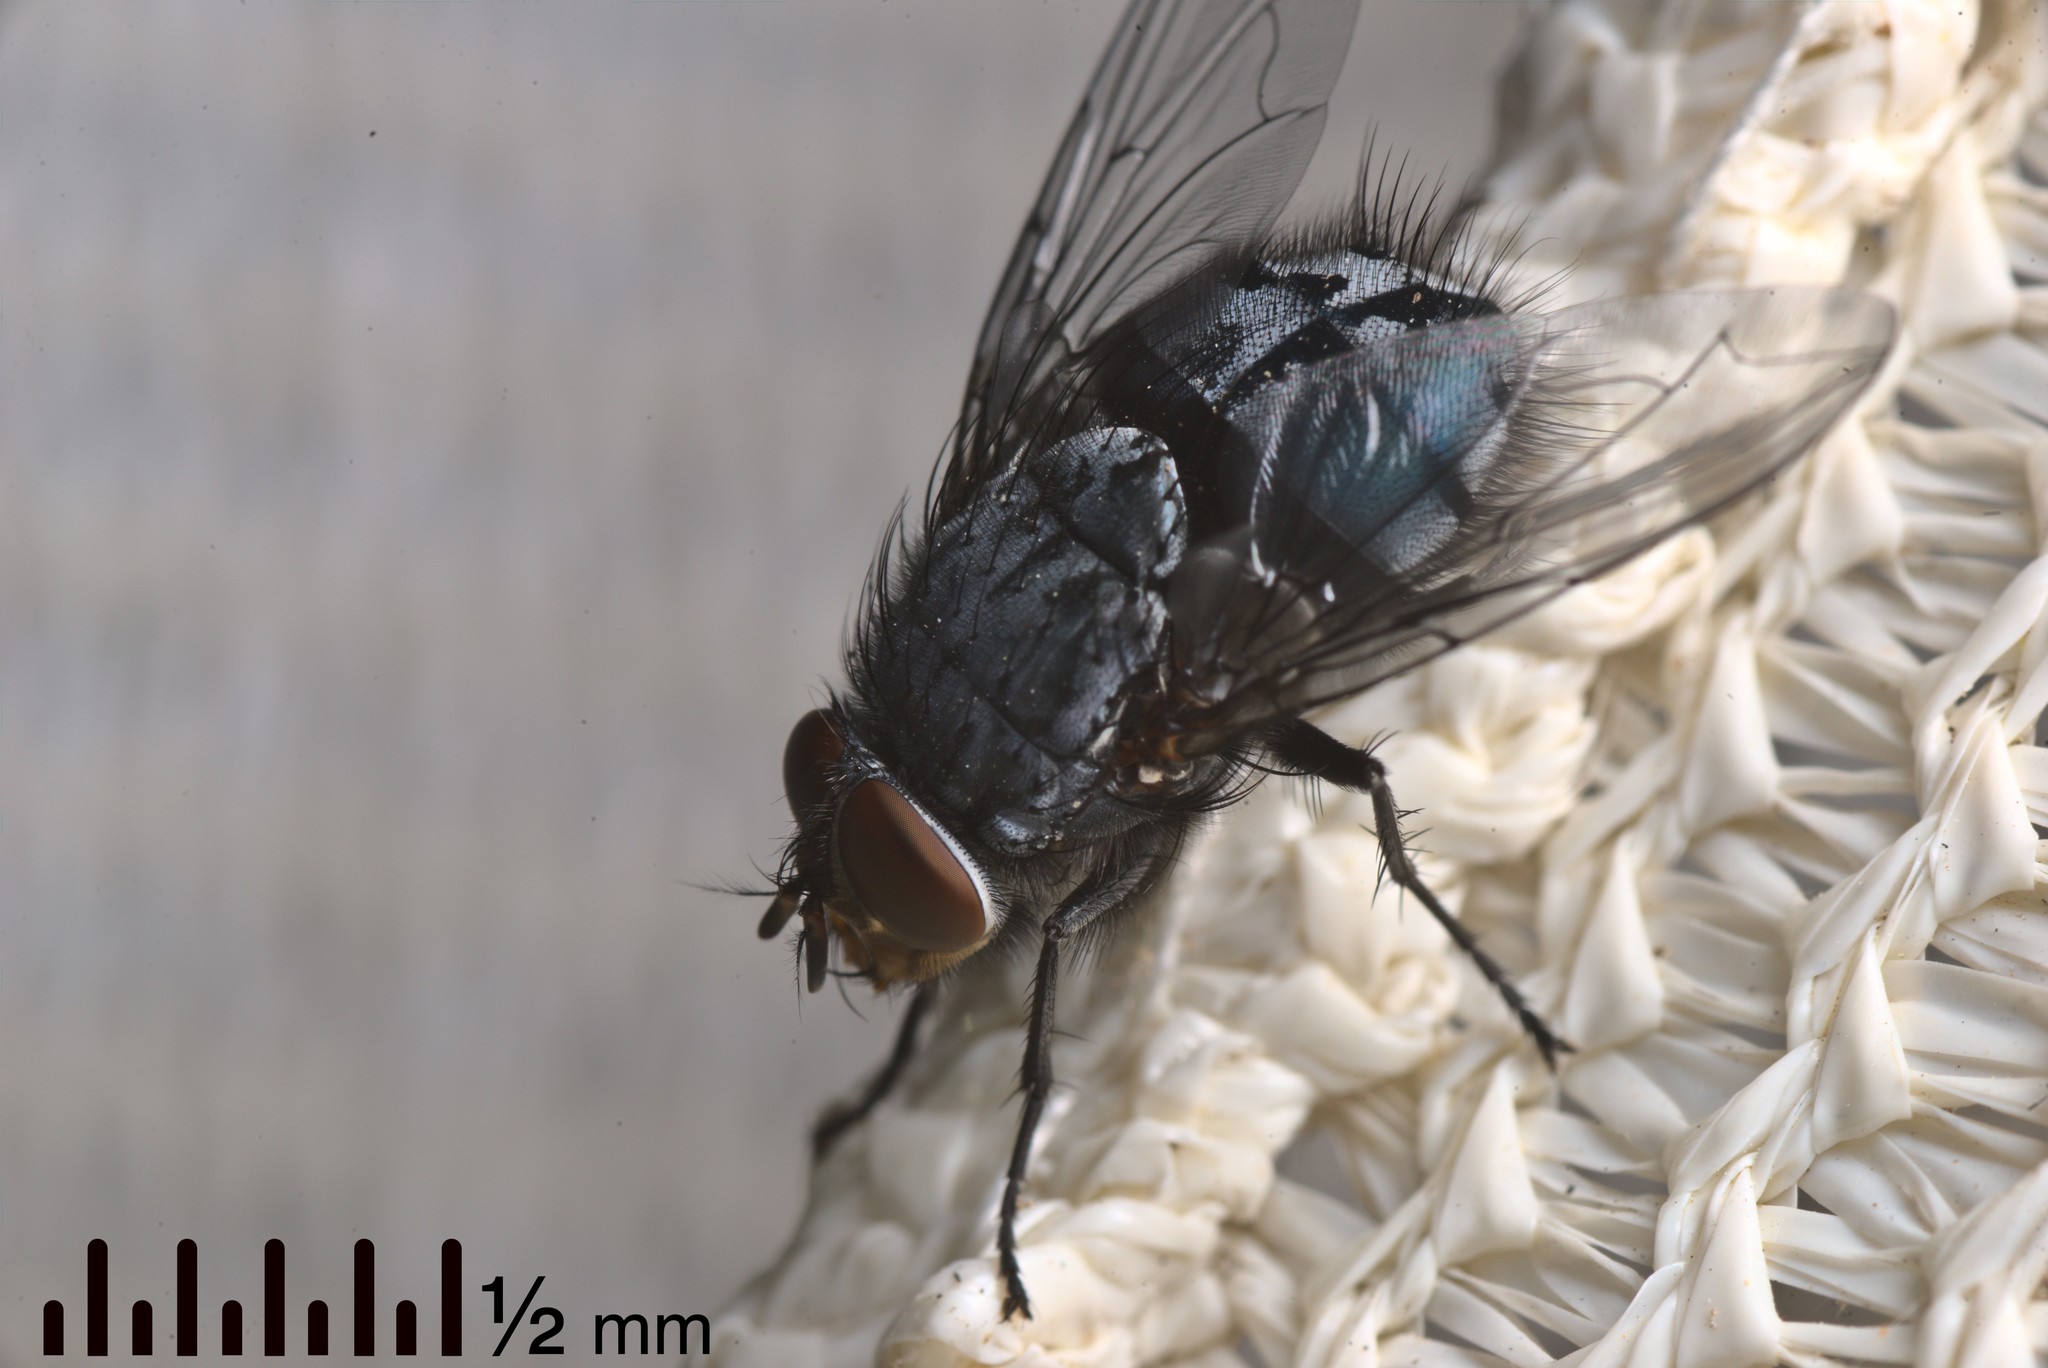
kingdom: Animalia
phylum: Arthropoda
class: Insecta
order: Diptera
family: Calliphoridae
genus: Calliphora
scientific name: Calliphora vicina
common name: Common blow flie
